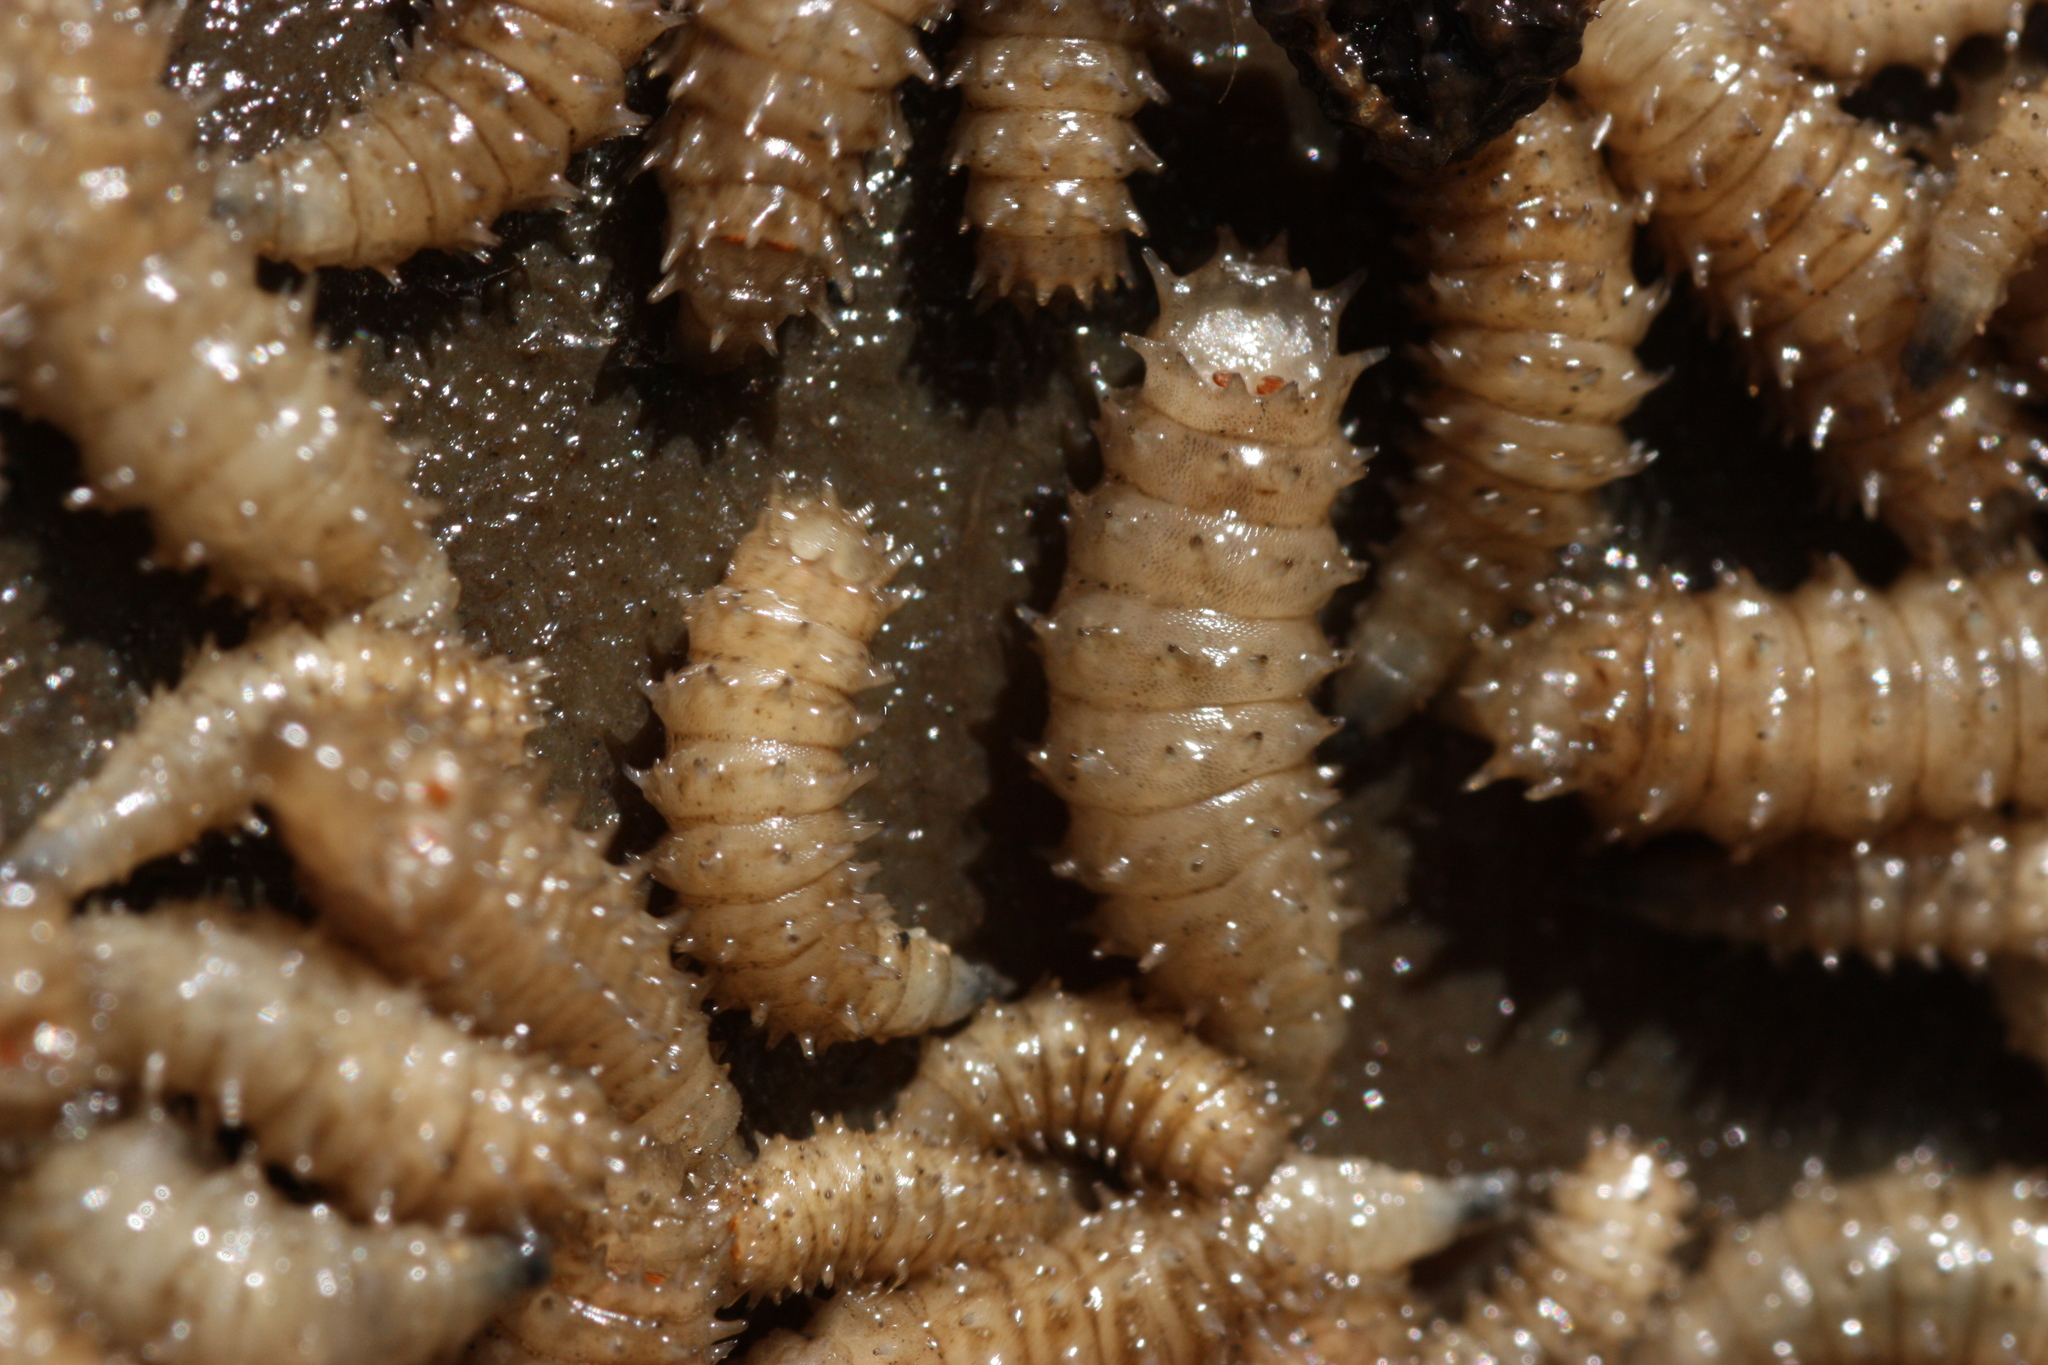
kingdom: Animalia
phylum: Arthropoda
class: Insecta
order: Diptera
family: Calliphoridae
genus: Chrysomya
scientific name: Chrysomya rufifacies
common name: Blow fly
